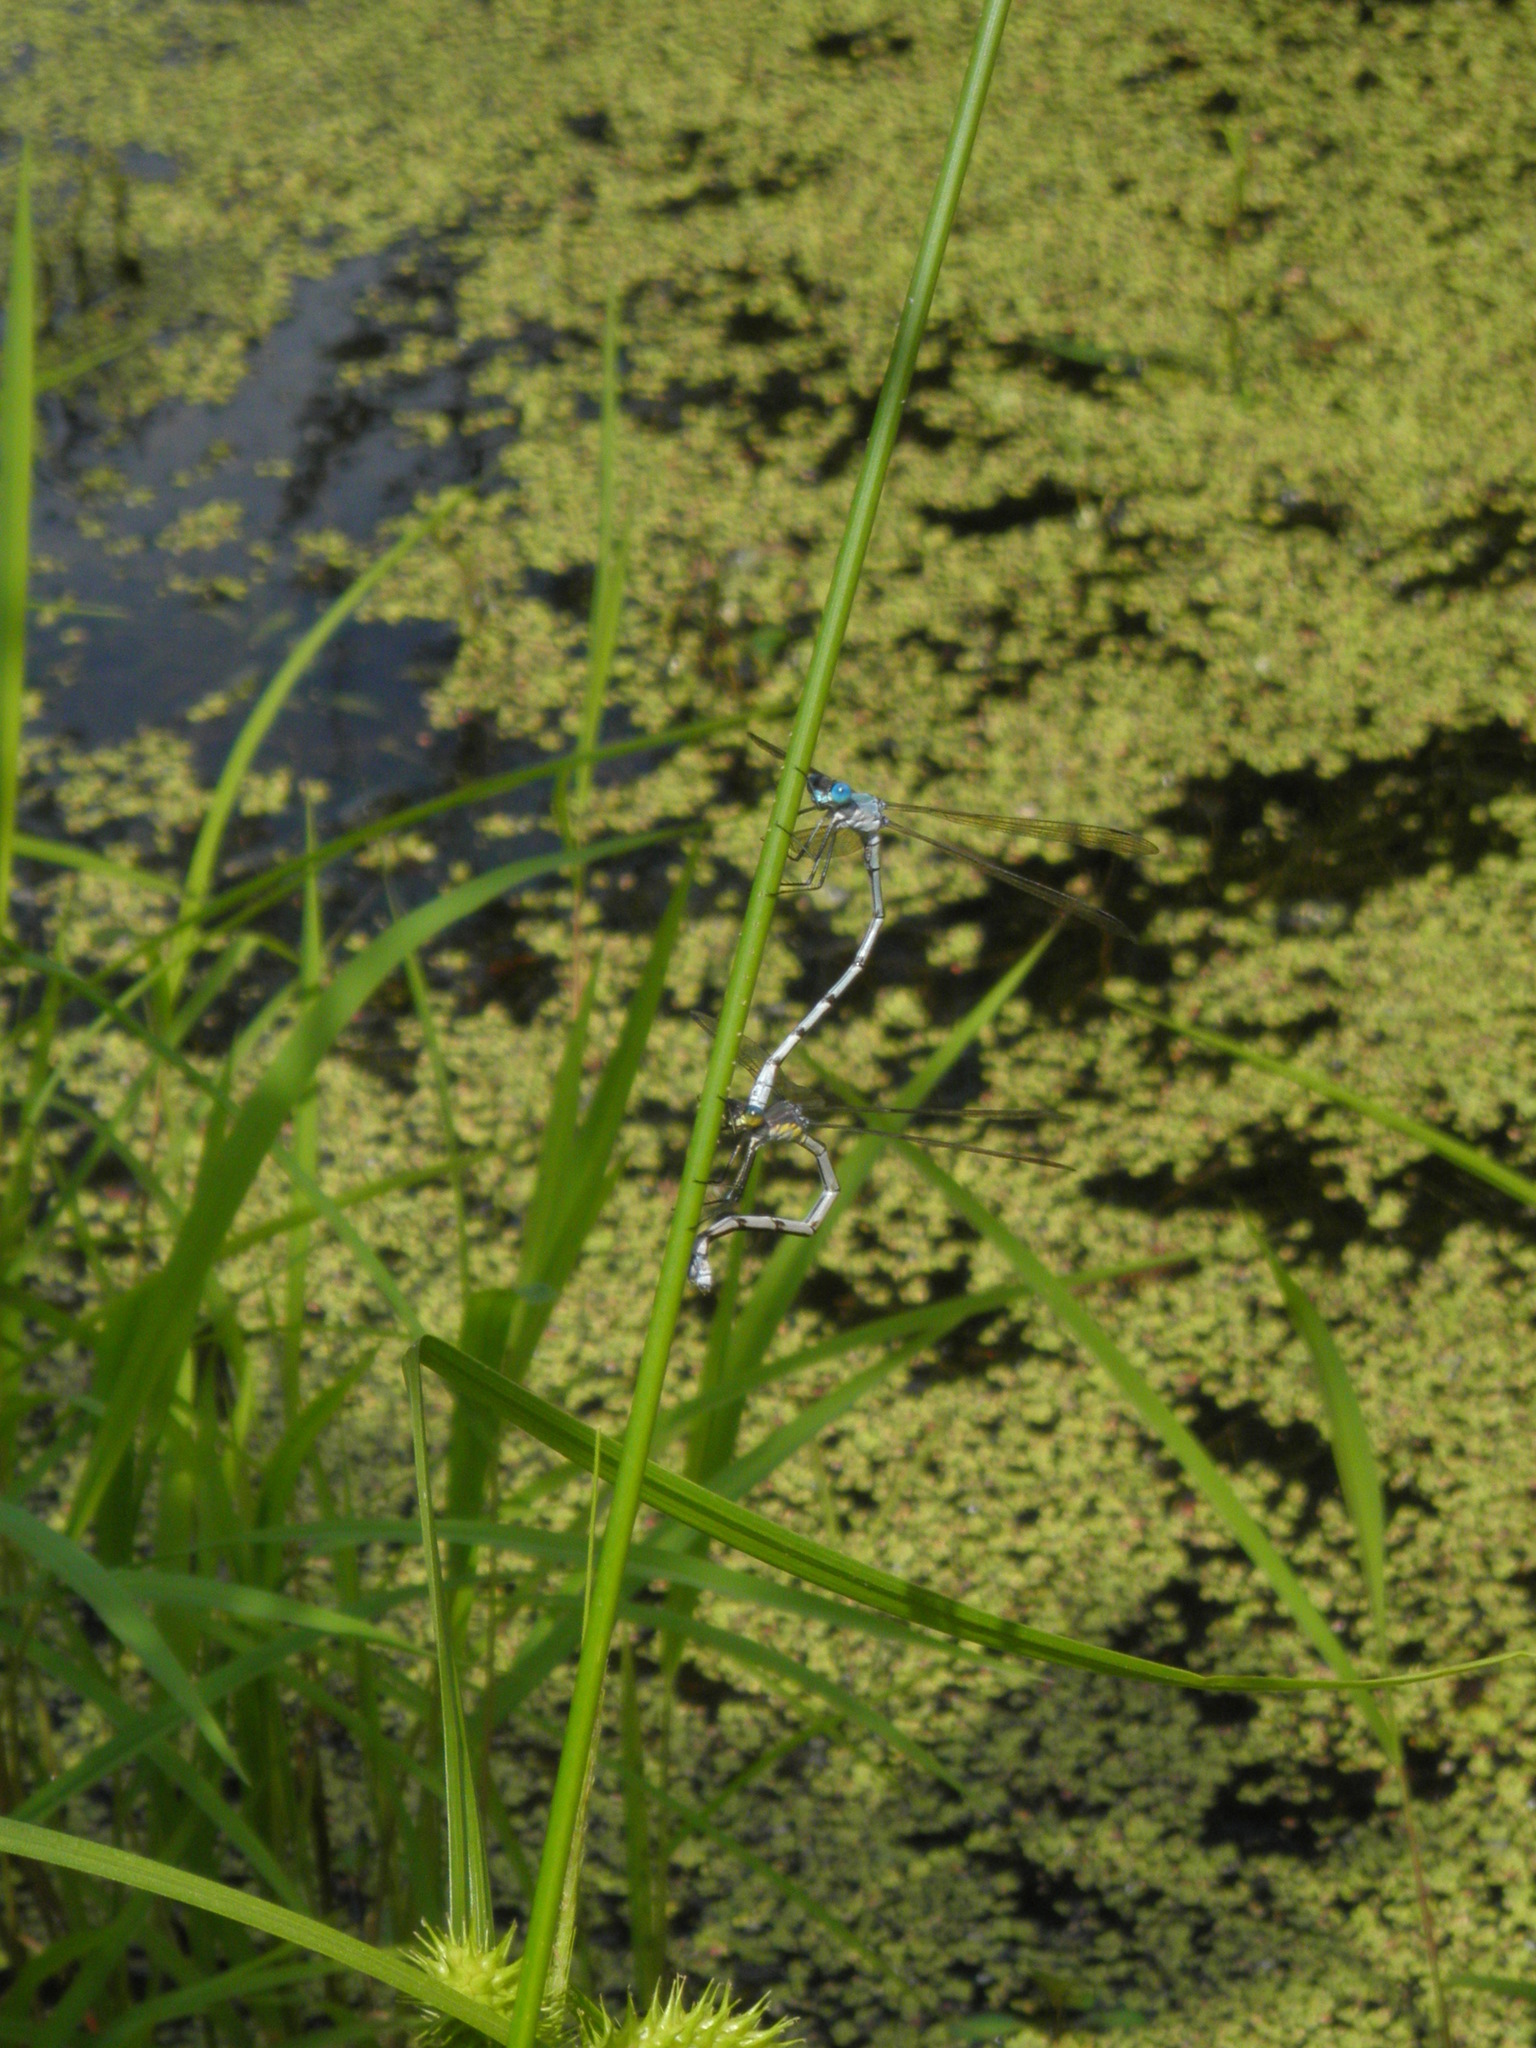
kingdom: Animalia
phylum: Arthropoda
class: Insecta
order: Odonata
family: Lestidae
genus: Lestes
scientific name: Lestes eurinus
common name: Amber-winged spreadwing
